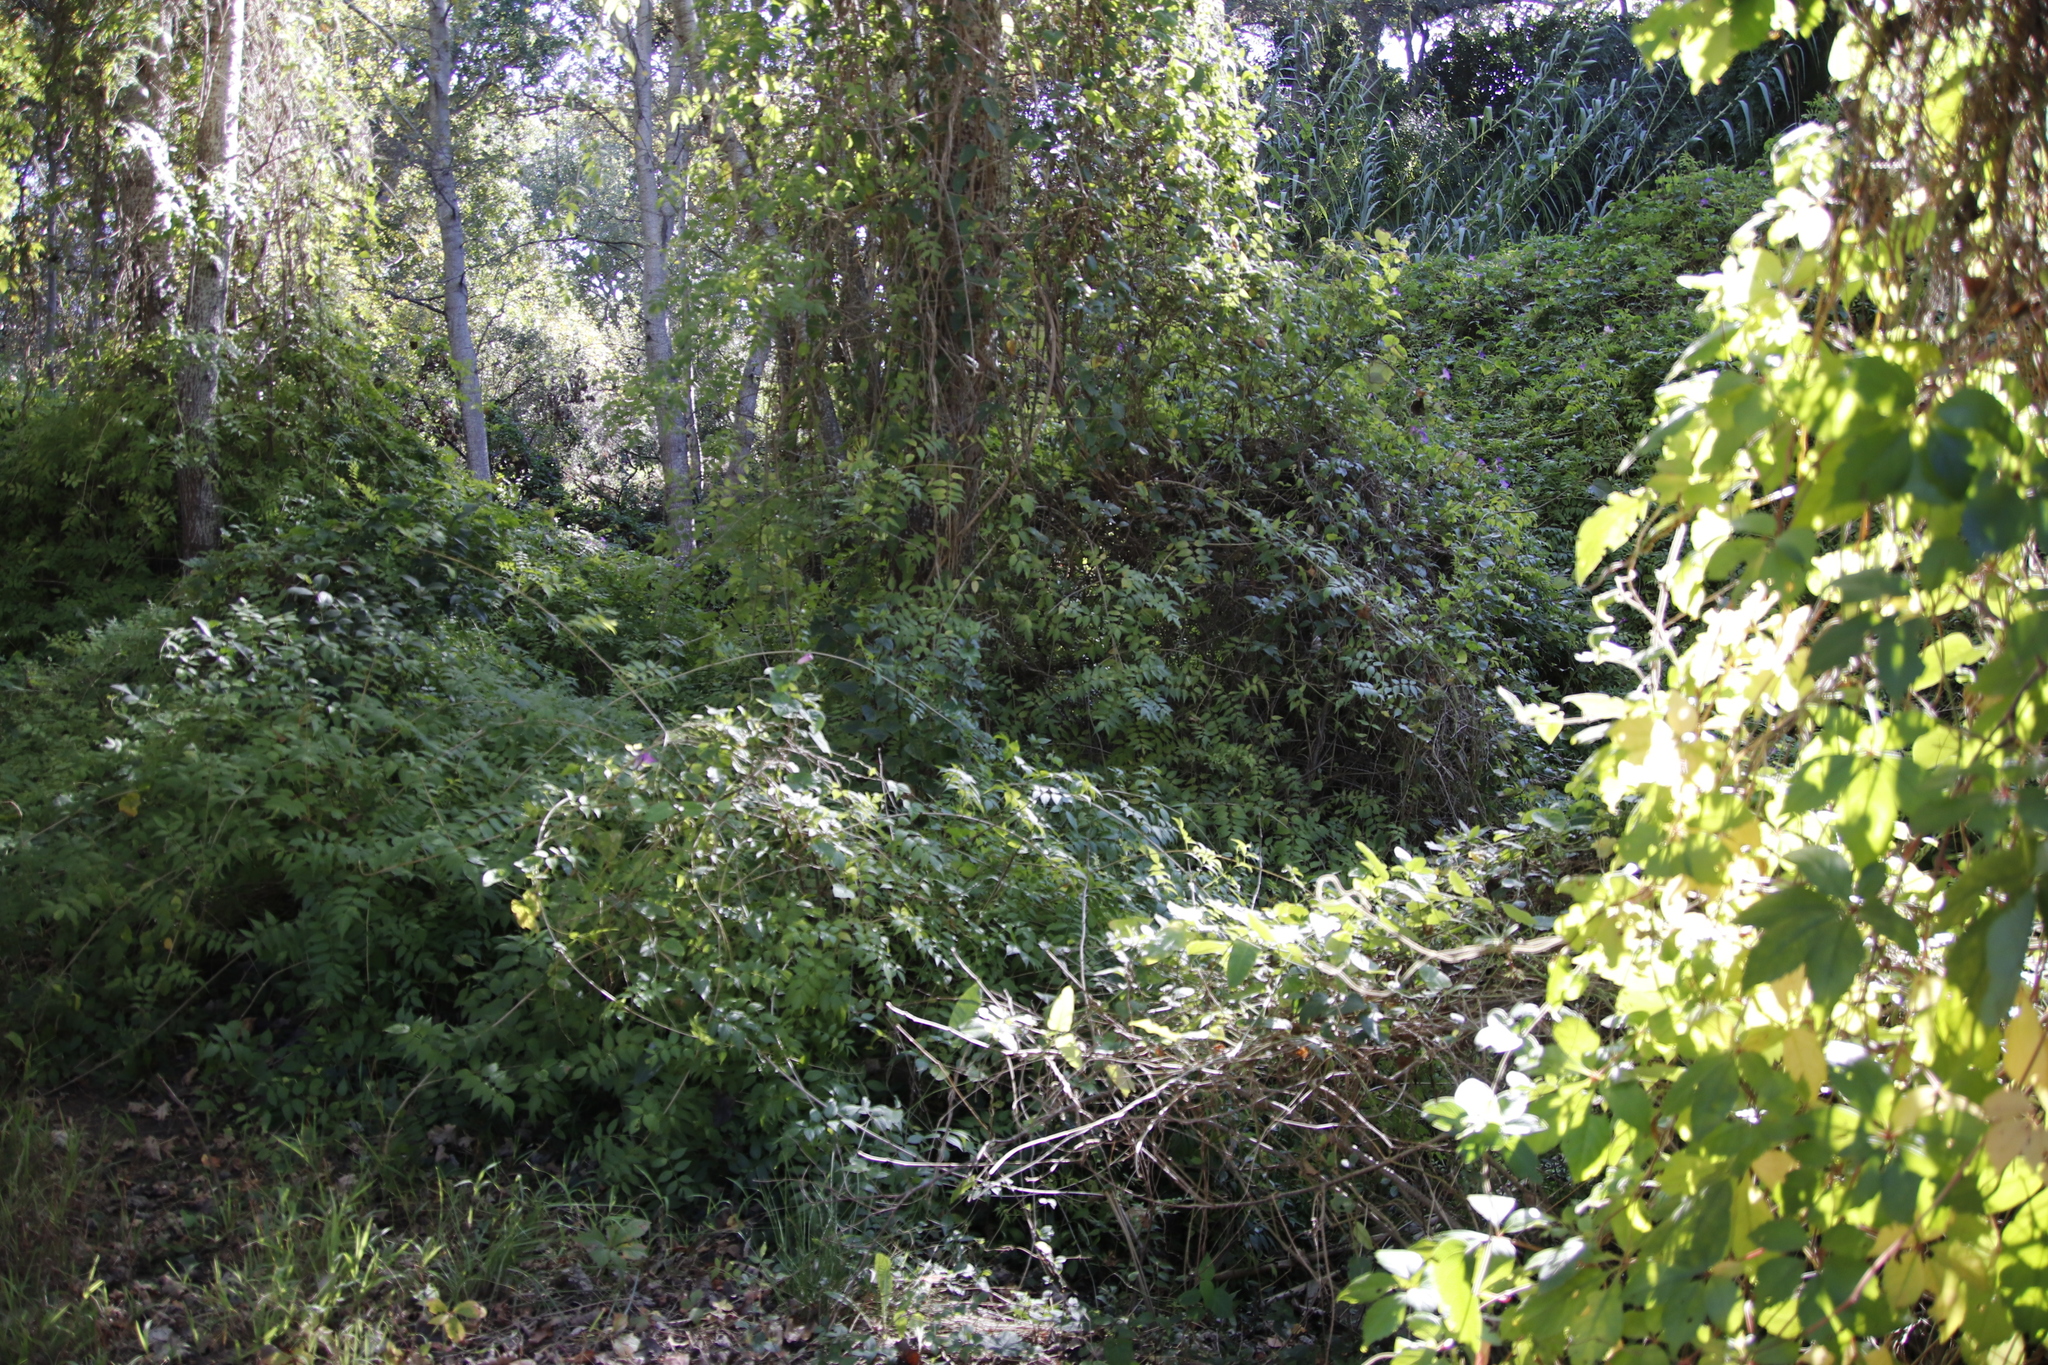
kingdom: Plantae
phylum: Tracheophyta
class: Magnoliopsida
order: Lamiales
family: Bignoniaceae
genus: Podranea
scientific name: Podranea ricasoliana
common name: Zimbabwe creeper
